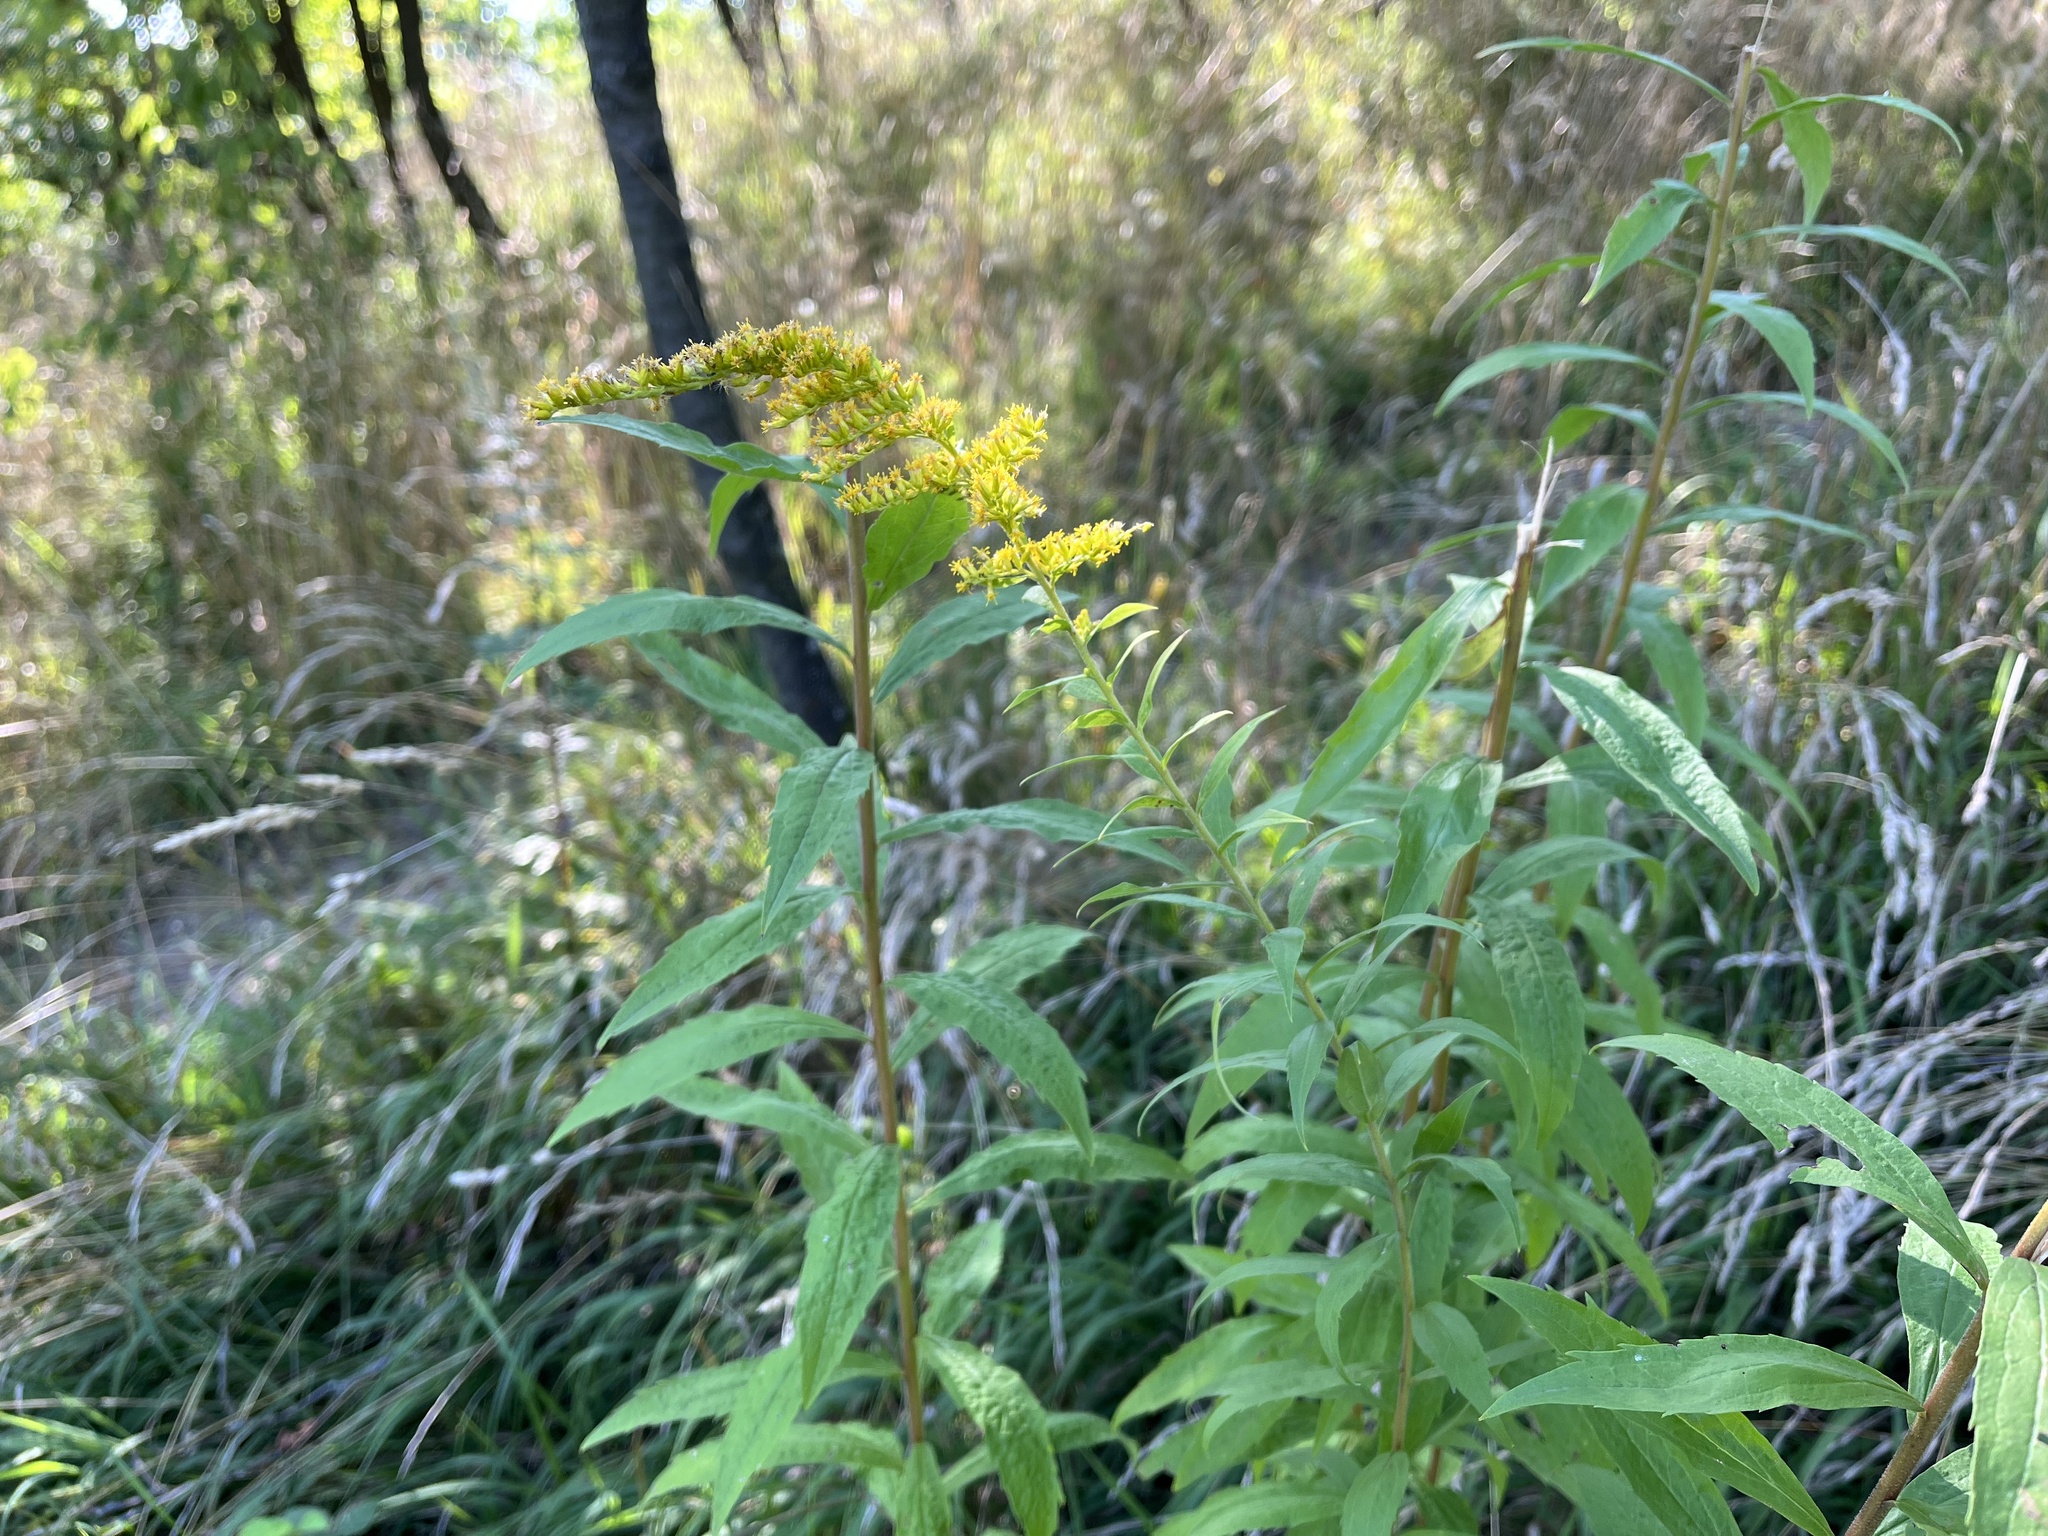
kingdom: Plantae
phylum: Tracheophyta
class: Magnoliopsida
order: Asterales
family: Asteraceae
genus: Solidago
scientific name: Solidago canadensis
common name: Canada goldenrod
